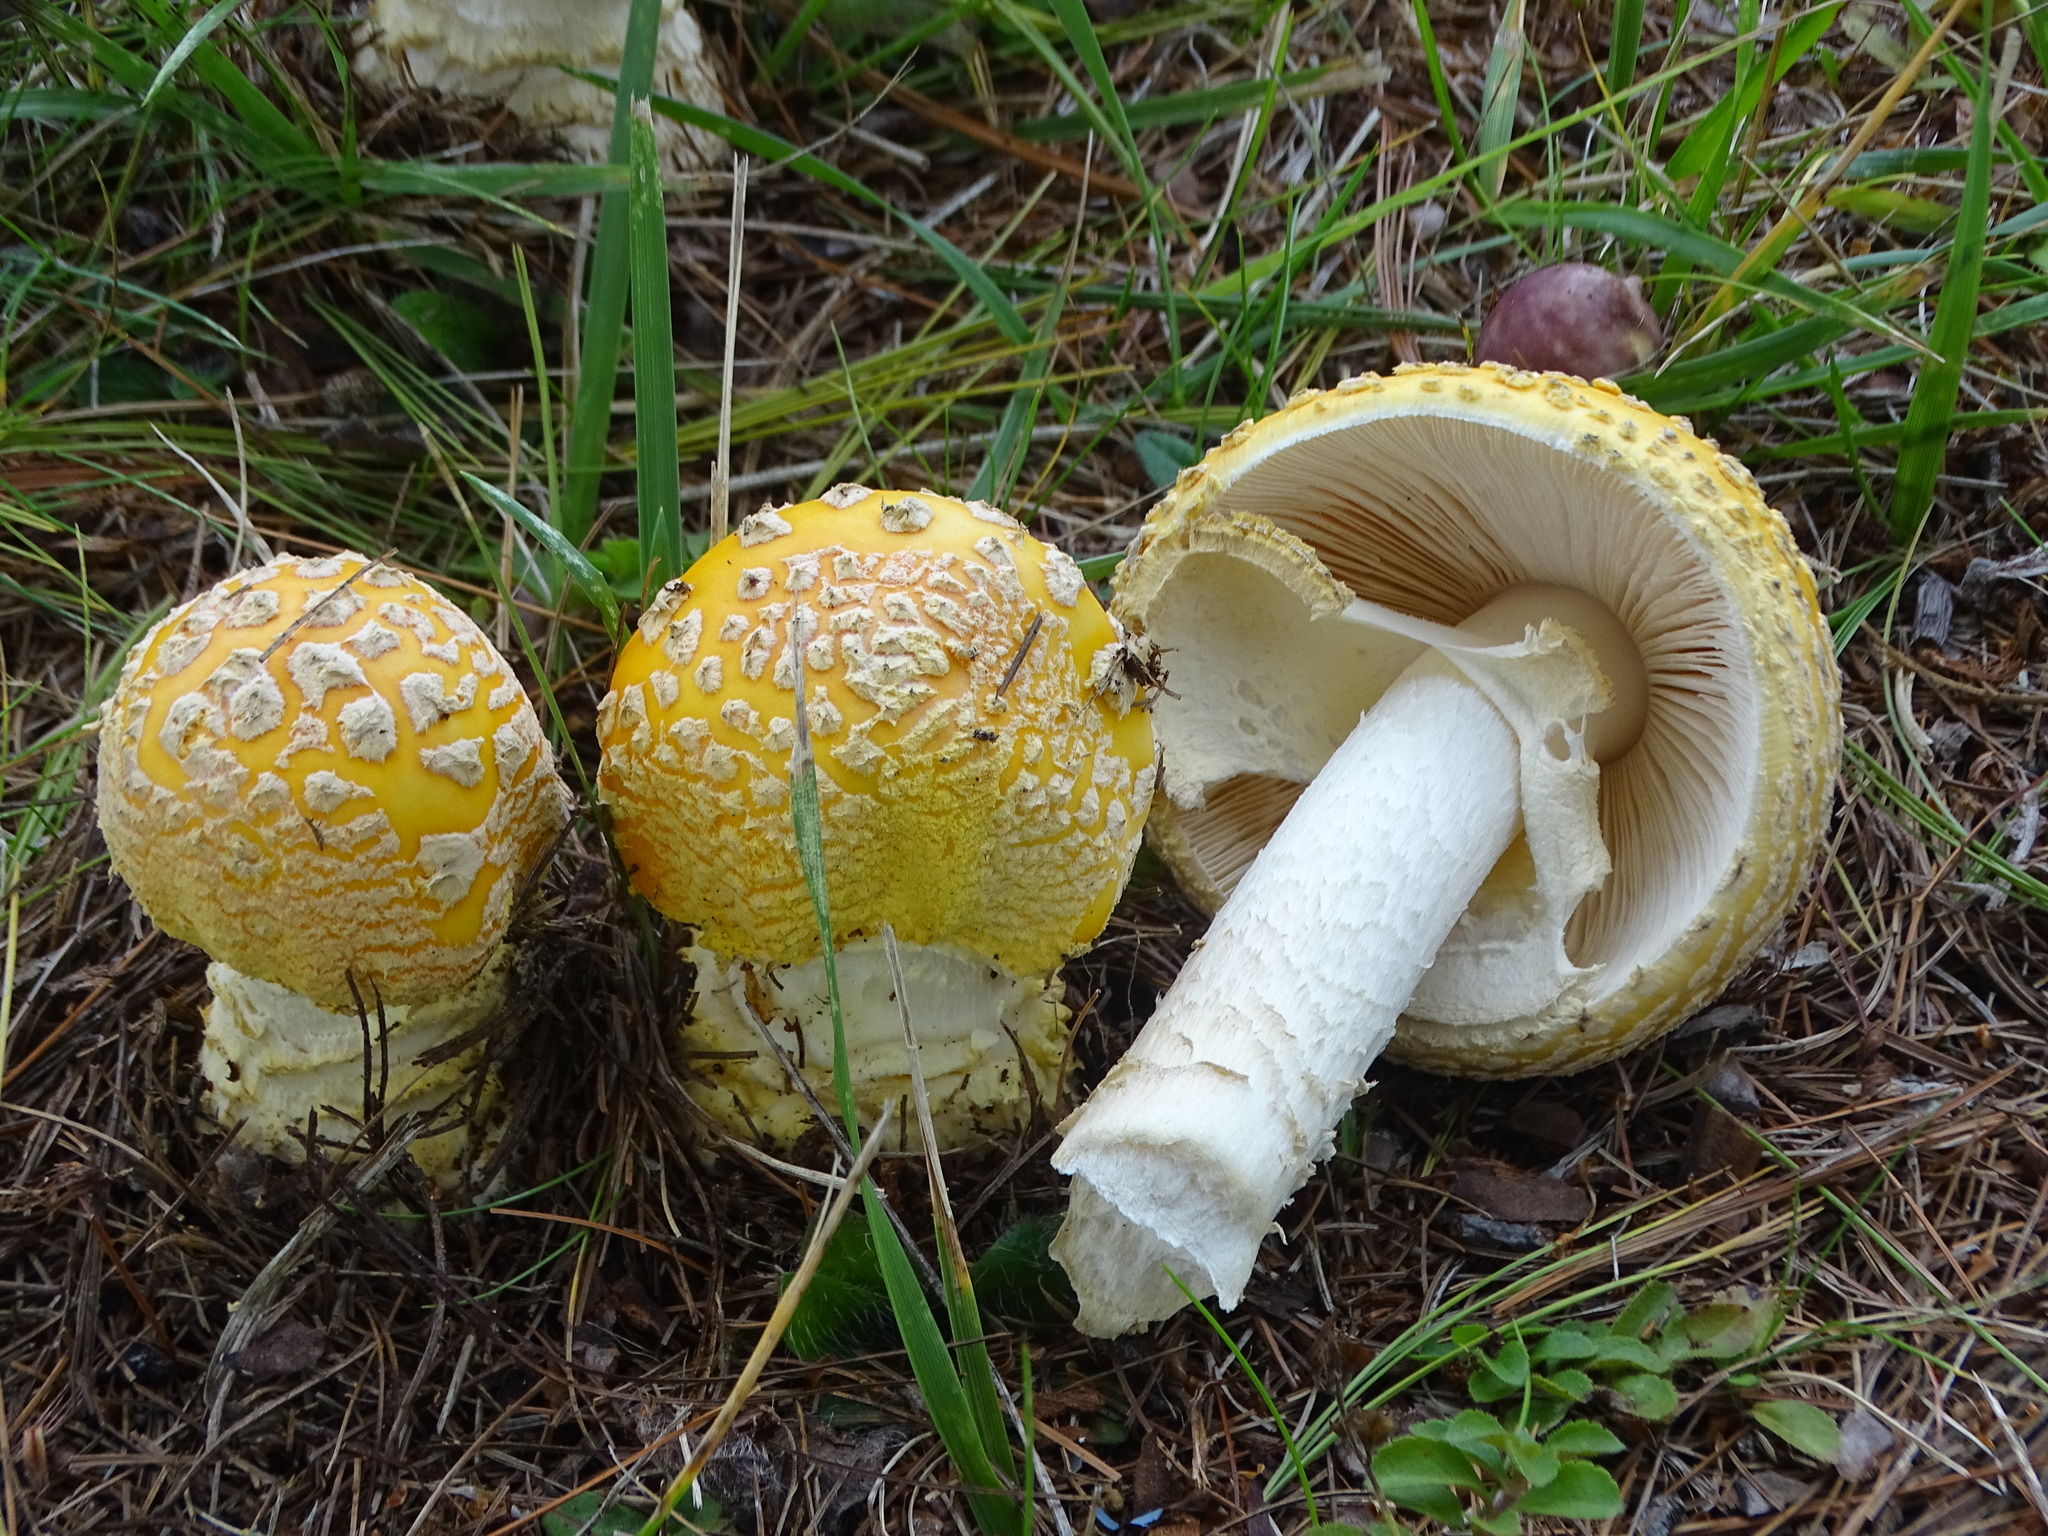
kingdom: Fungi
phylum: Basidiomycota
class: Agaricomycetes
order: Agaricales
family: Amanitaceae
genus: Amanita
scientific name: Amanita muscaria
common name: Fly agaric
